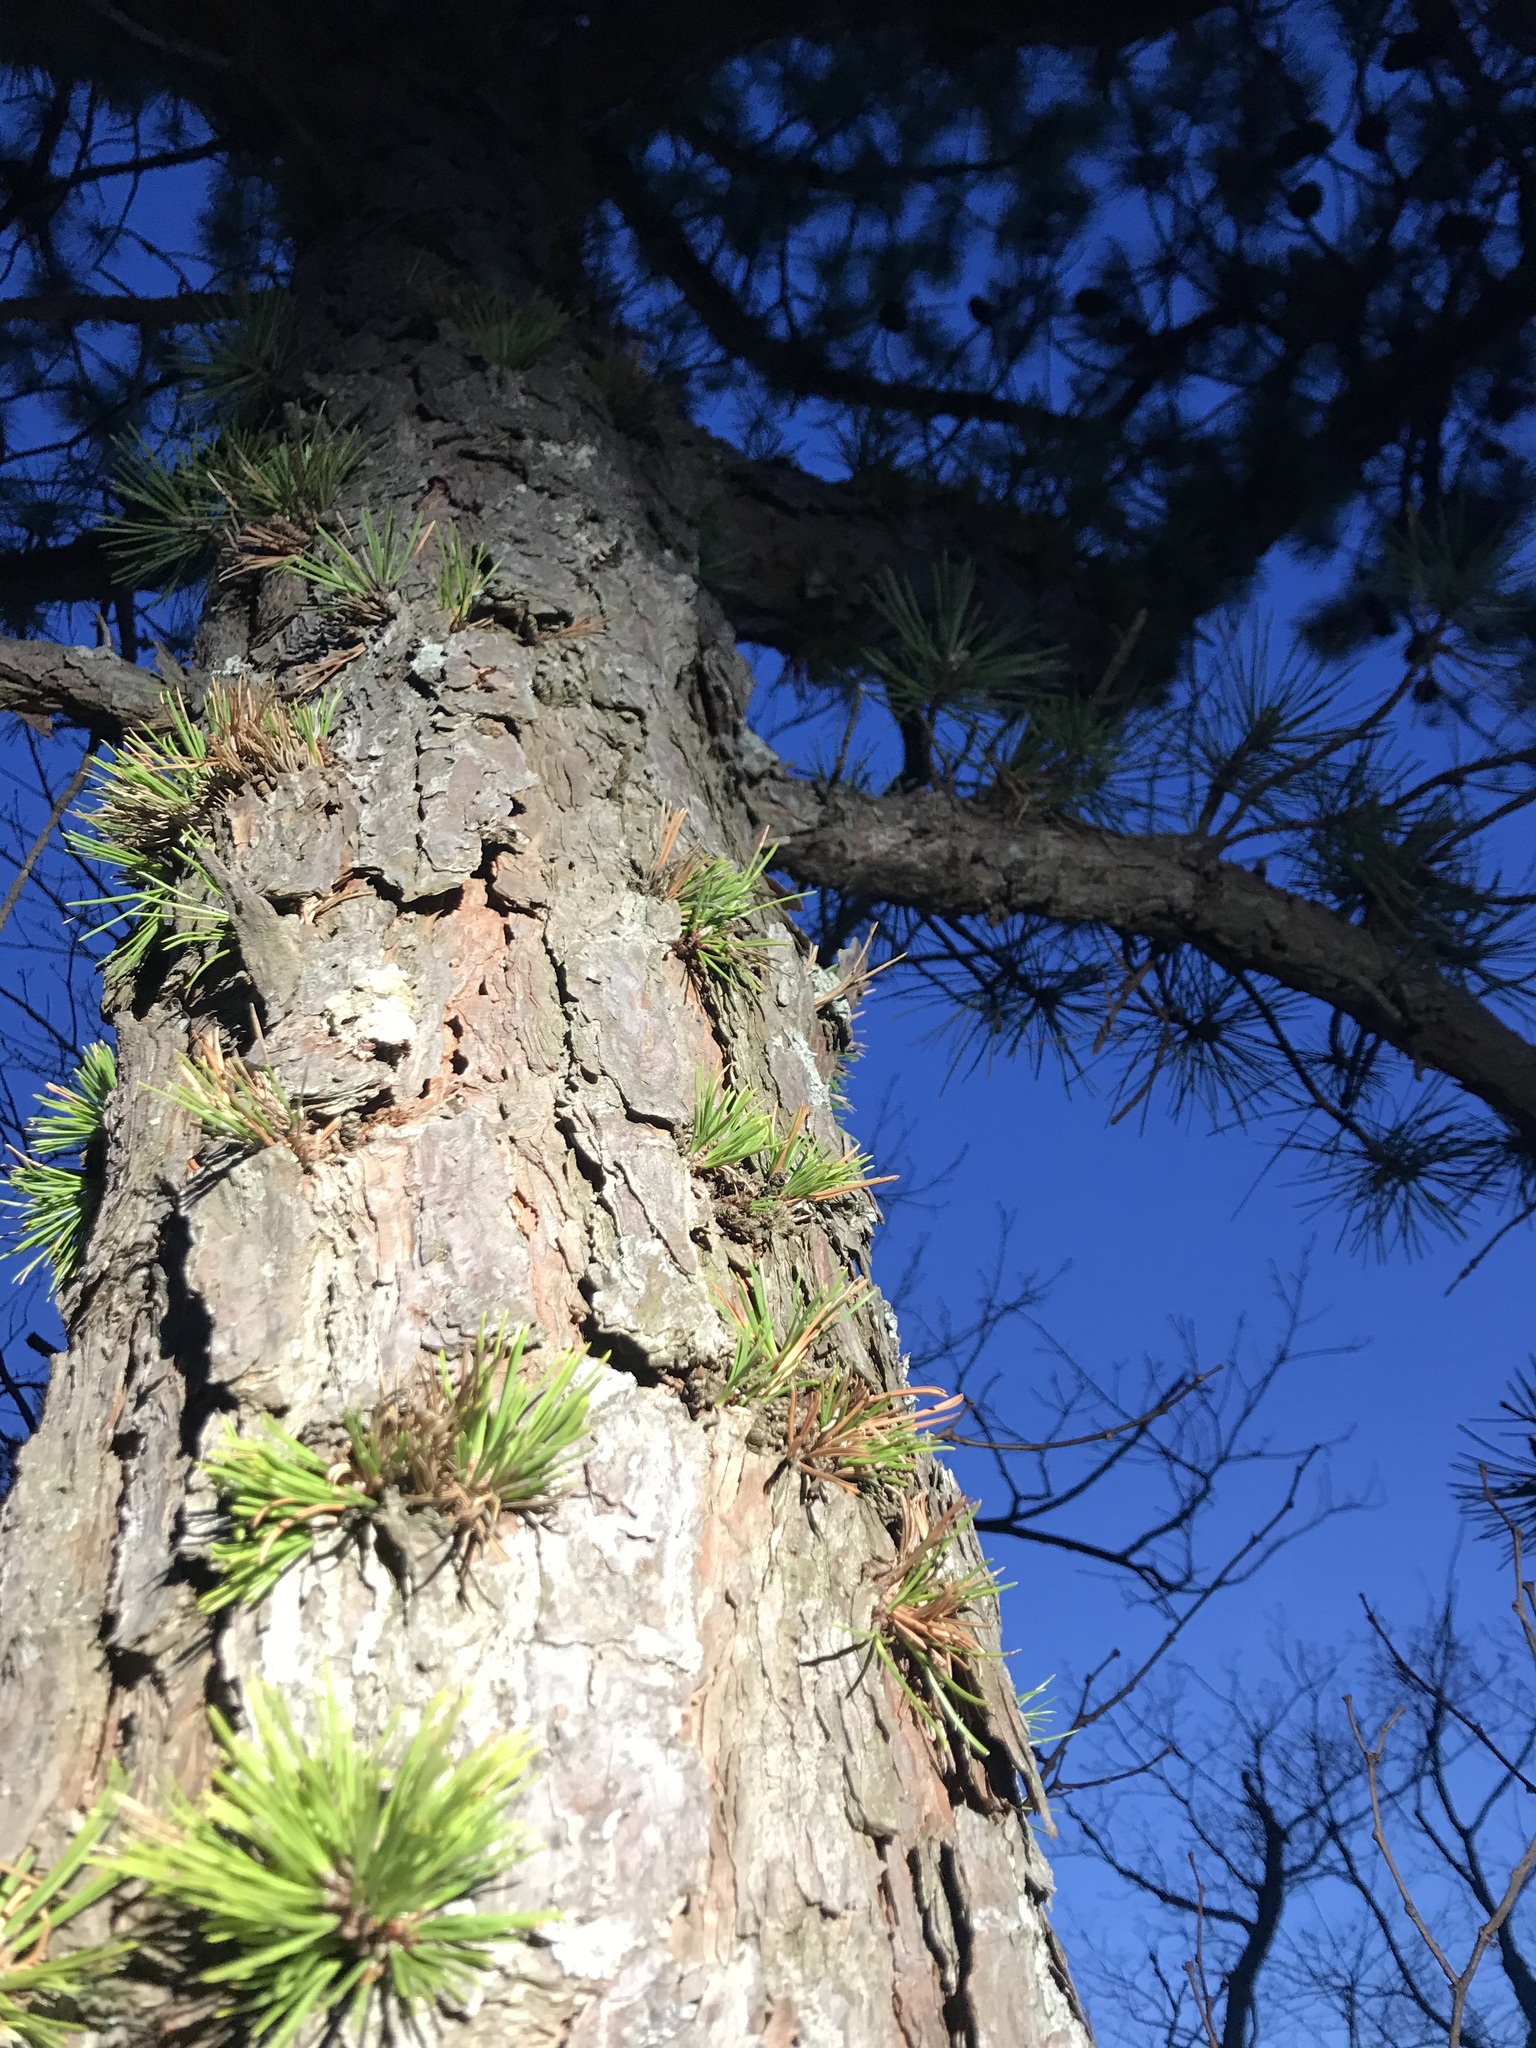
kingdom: Plantae
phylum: Tracheophyta
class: Pinopsida
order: Pinales
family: Pinaceae
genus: Pinus
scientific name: Pinus rigida
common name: Pitch pine
